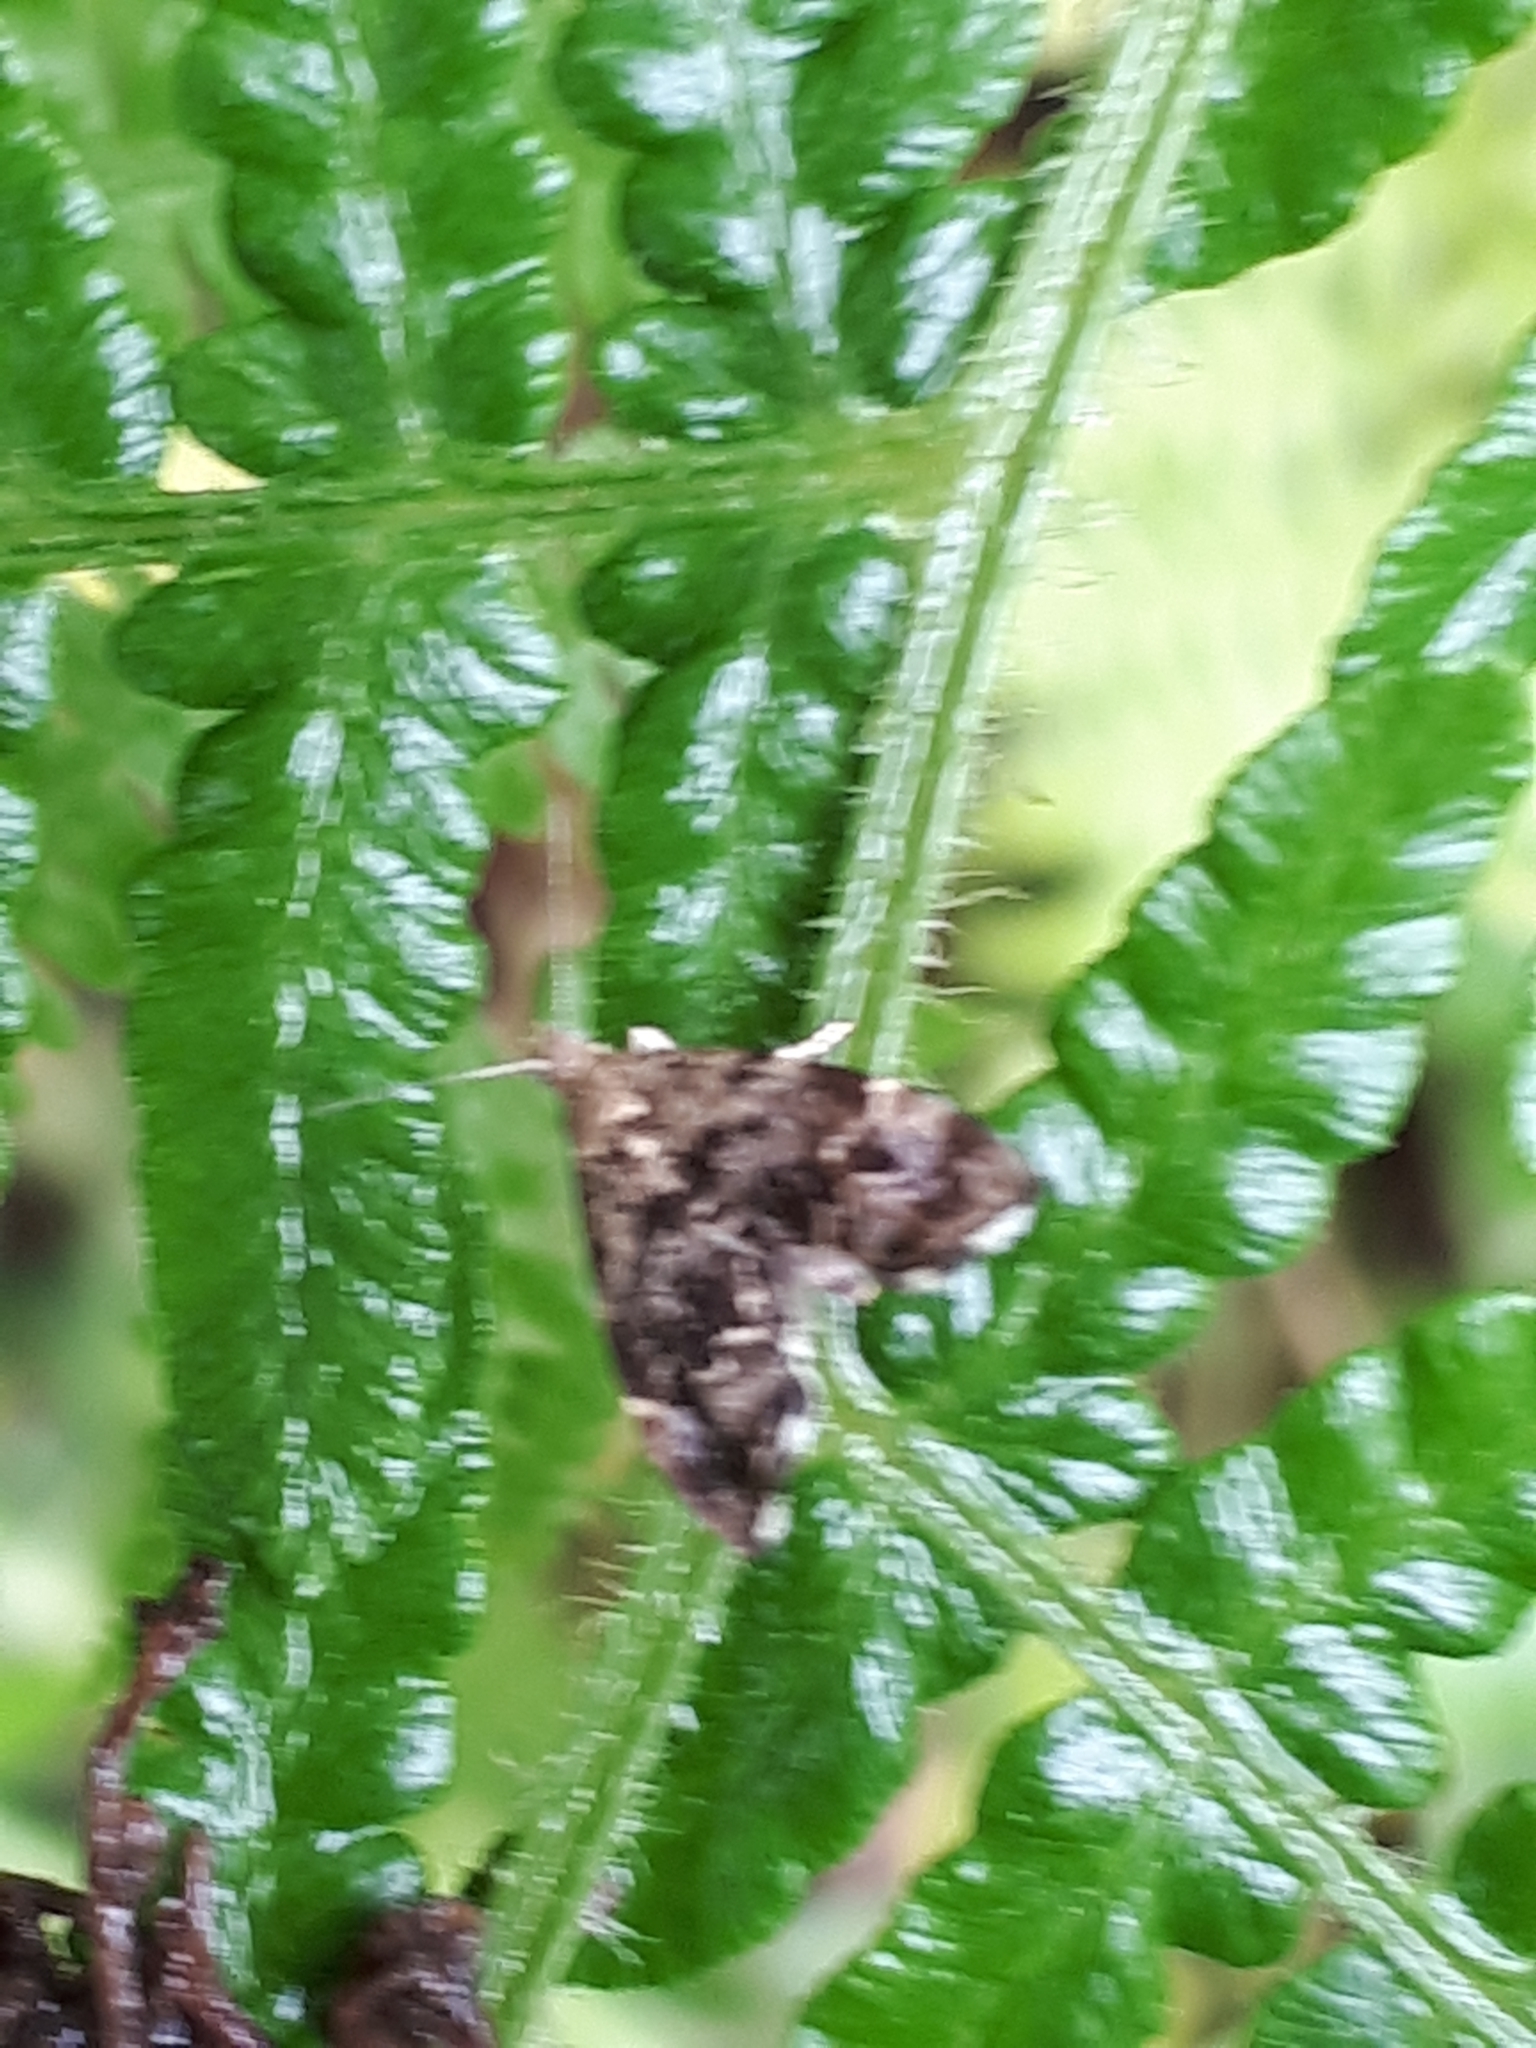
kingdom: Animalia
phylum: Arthropoda
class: Insecta
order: Lepidoptera
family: Choreutidae
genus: Anthophila
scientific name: Anthophila fabriciana
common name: Nettle-tap
